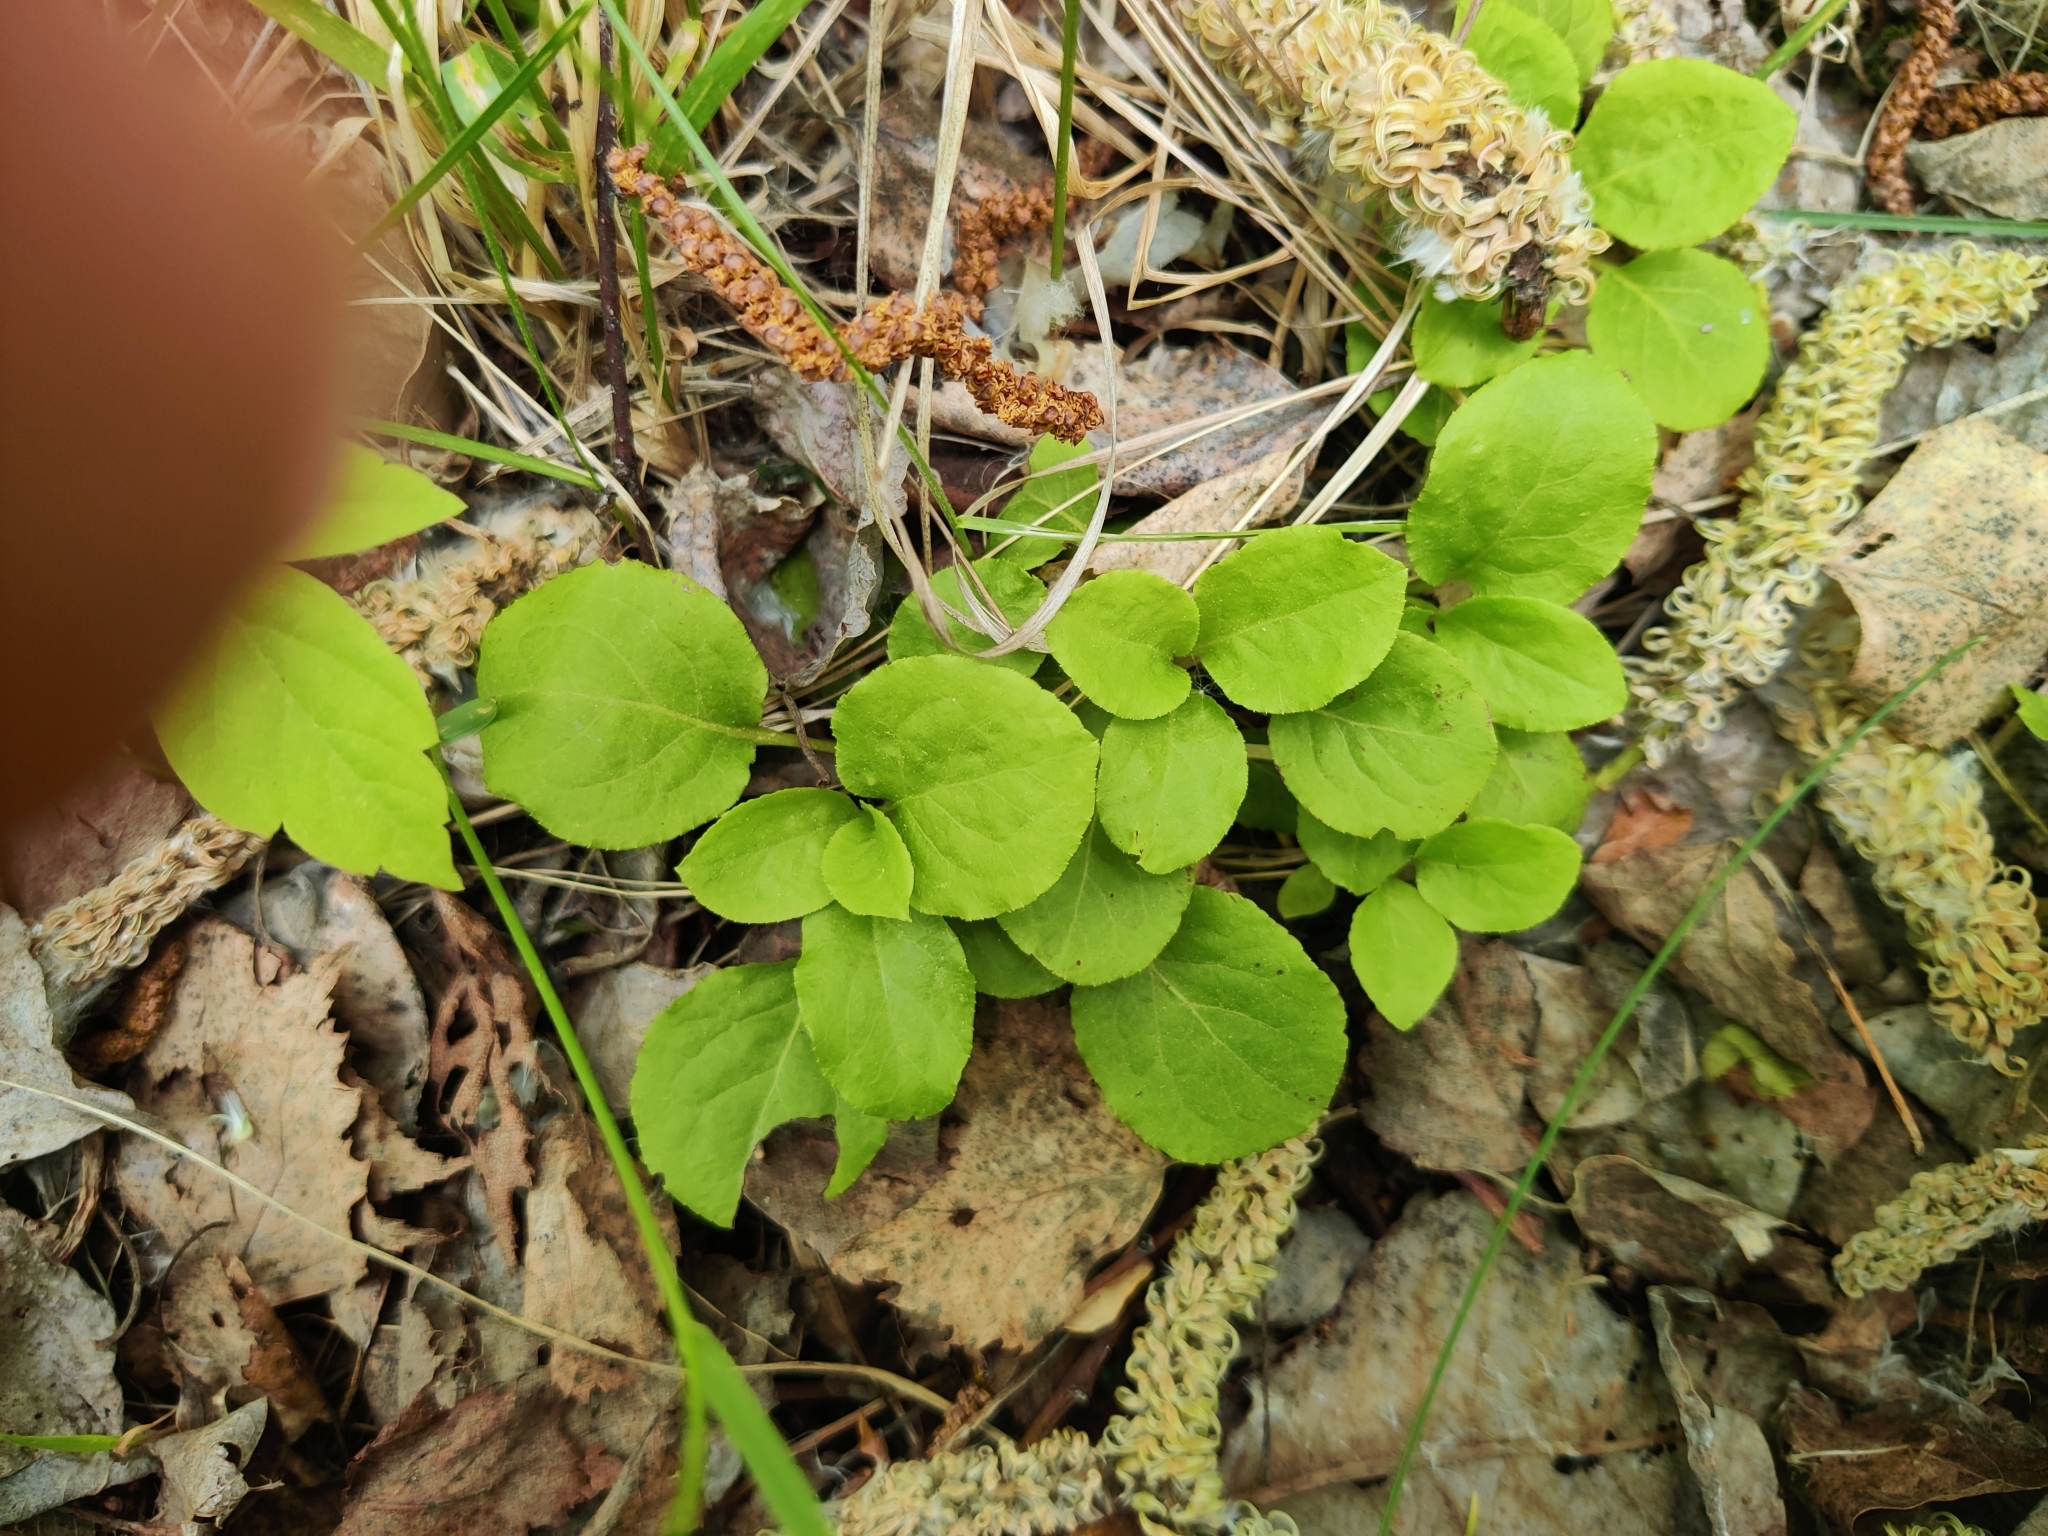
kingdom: Plantae
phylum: Tracheophyta
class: Magnoliopsida
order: Ericales
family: Ericaceae
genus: Pyrola
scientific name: Pyrola minor
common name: Common wintergreen
